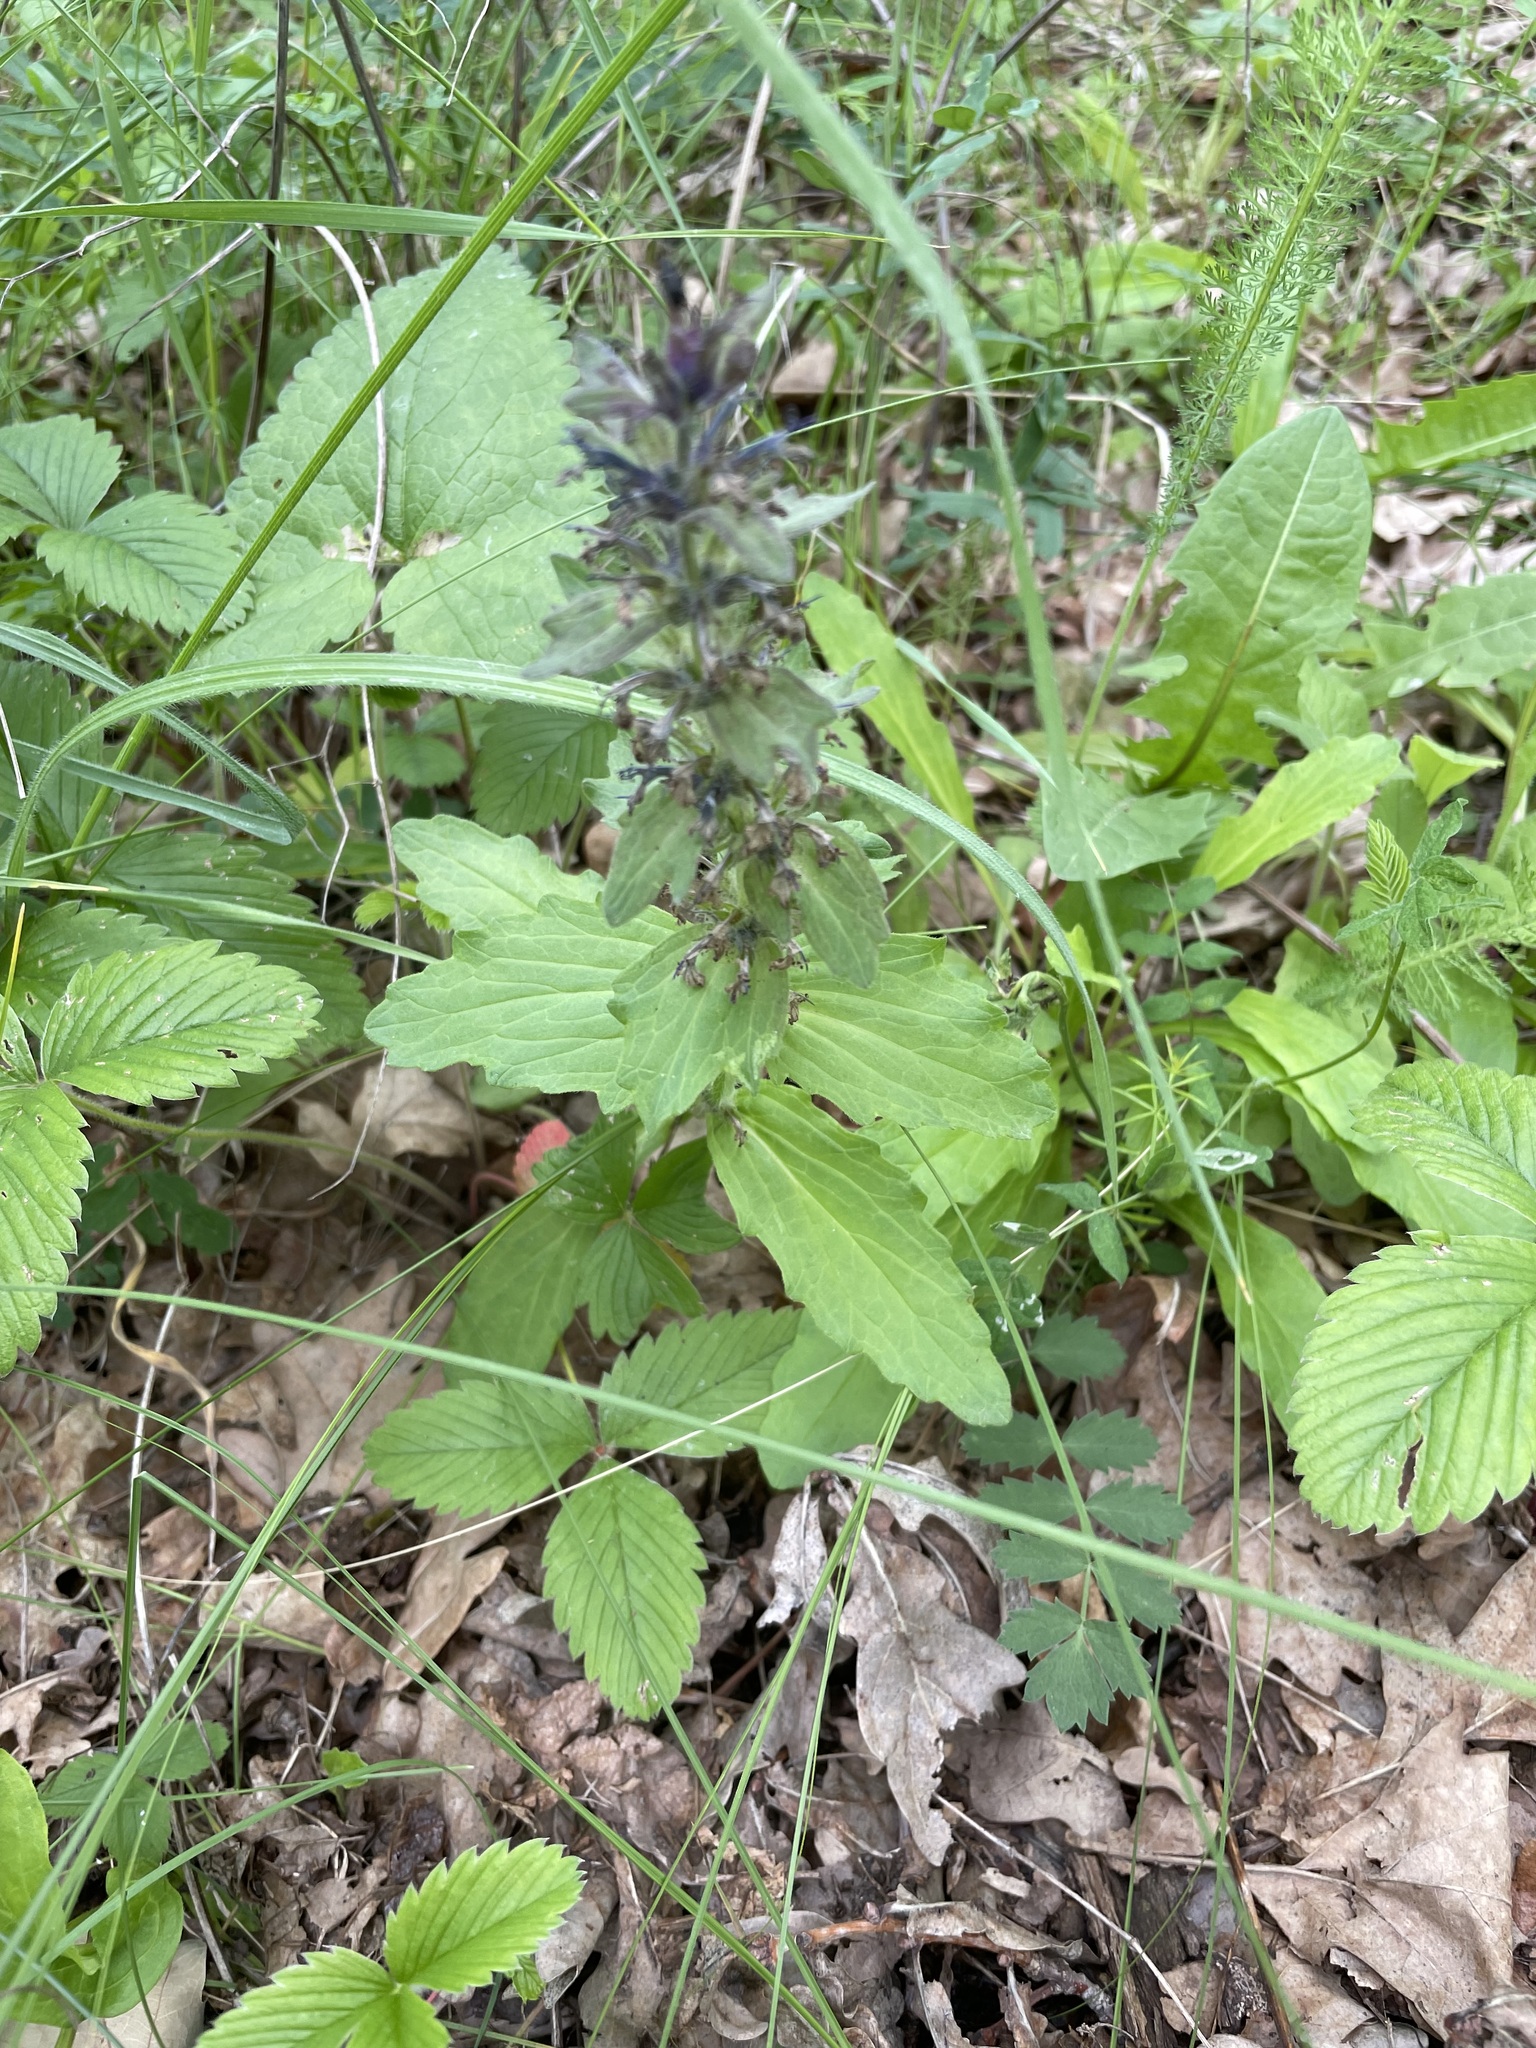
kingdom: Plantae
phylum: Tracheophyta
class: Magnoliopsida
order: Lamiales
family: Lamiaceae
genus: Ajuga
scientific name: Ajuga genevensis
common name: Blue bugle
